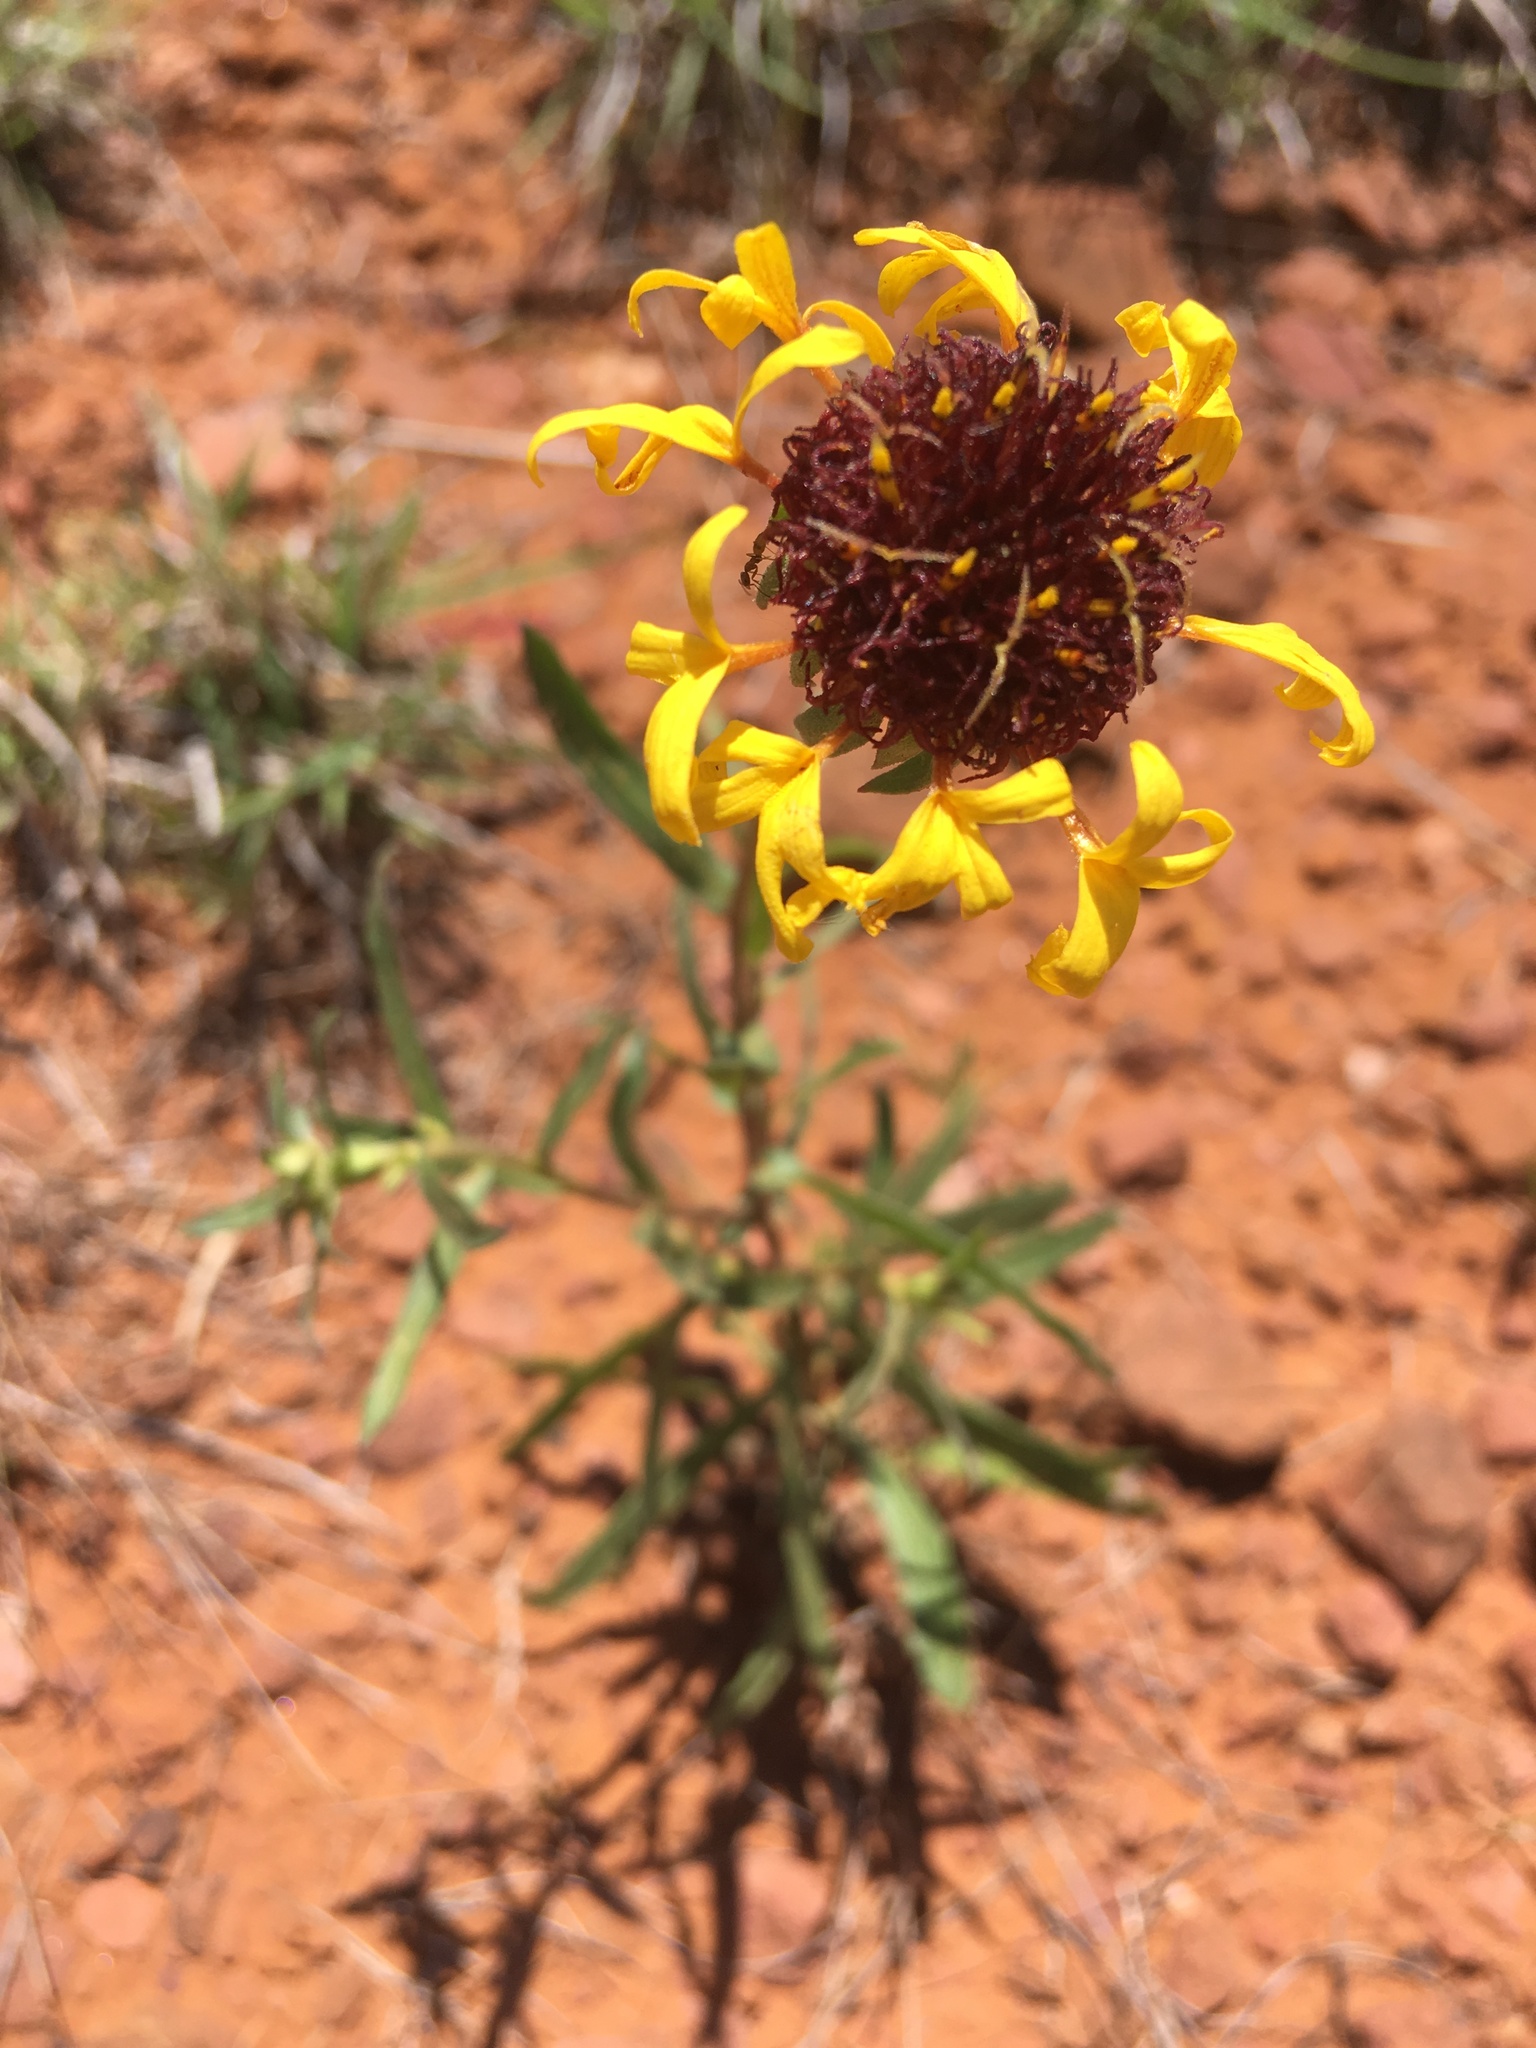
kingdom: Plantae
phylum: Tracheophyta
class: Magnoliopsida
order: Asterales
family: Asteraceae
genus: Gaillardia
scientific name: Gaillardia aestivalis
